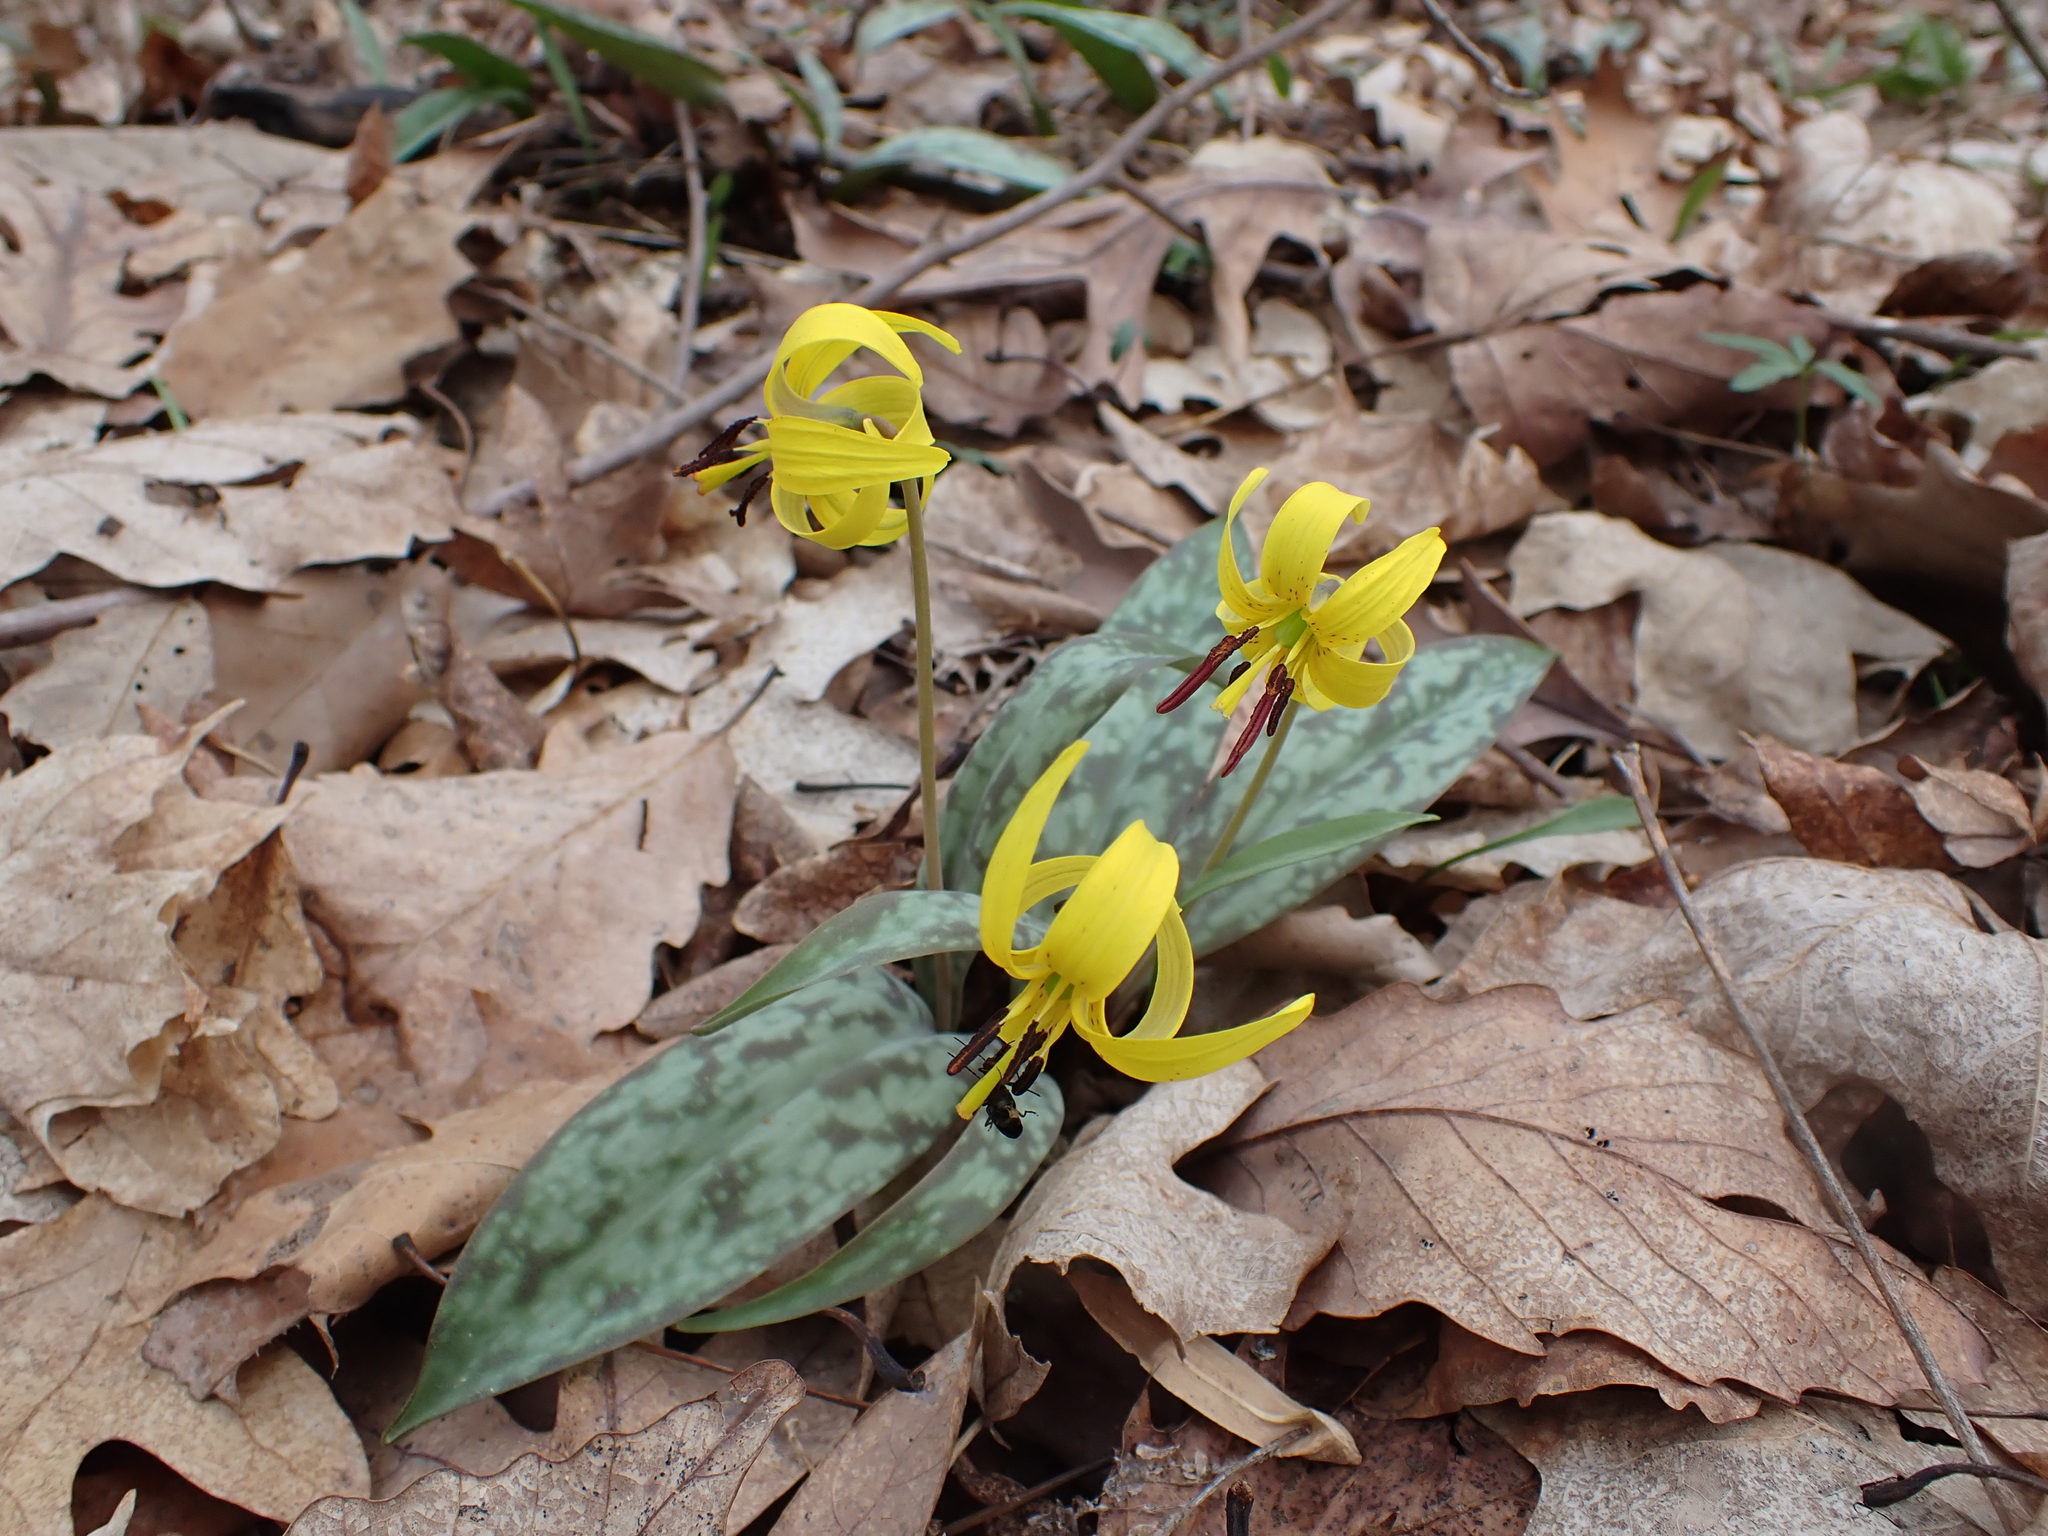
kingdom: Plantae
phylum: Tracheophyta
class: Liliopsida
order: Liliales
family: Liliaceae
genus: Erythronium
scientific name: Erythronium americanum
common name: Yellow adder's-tongue
